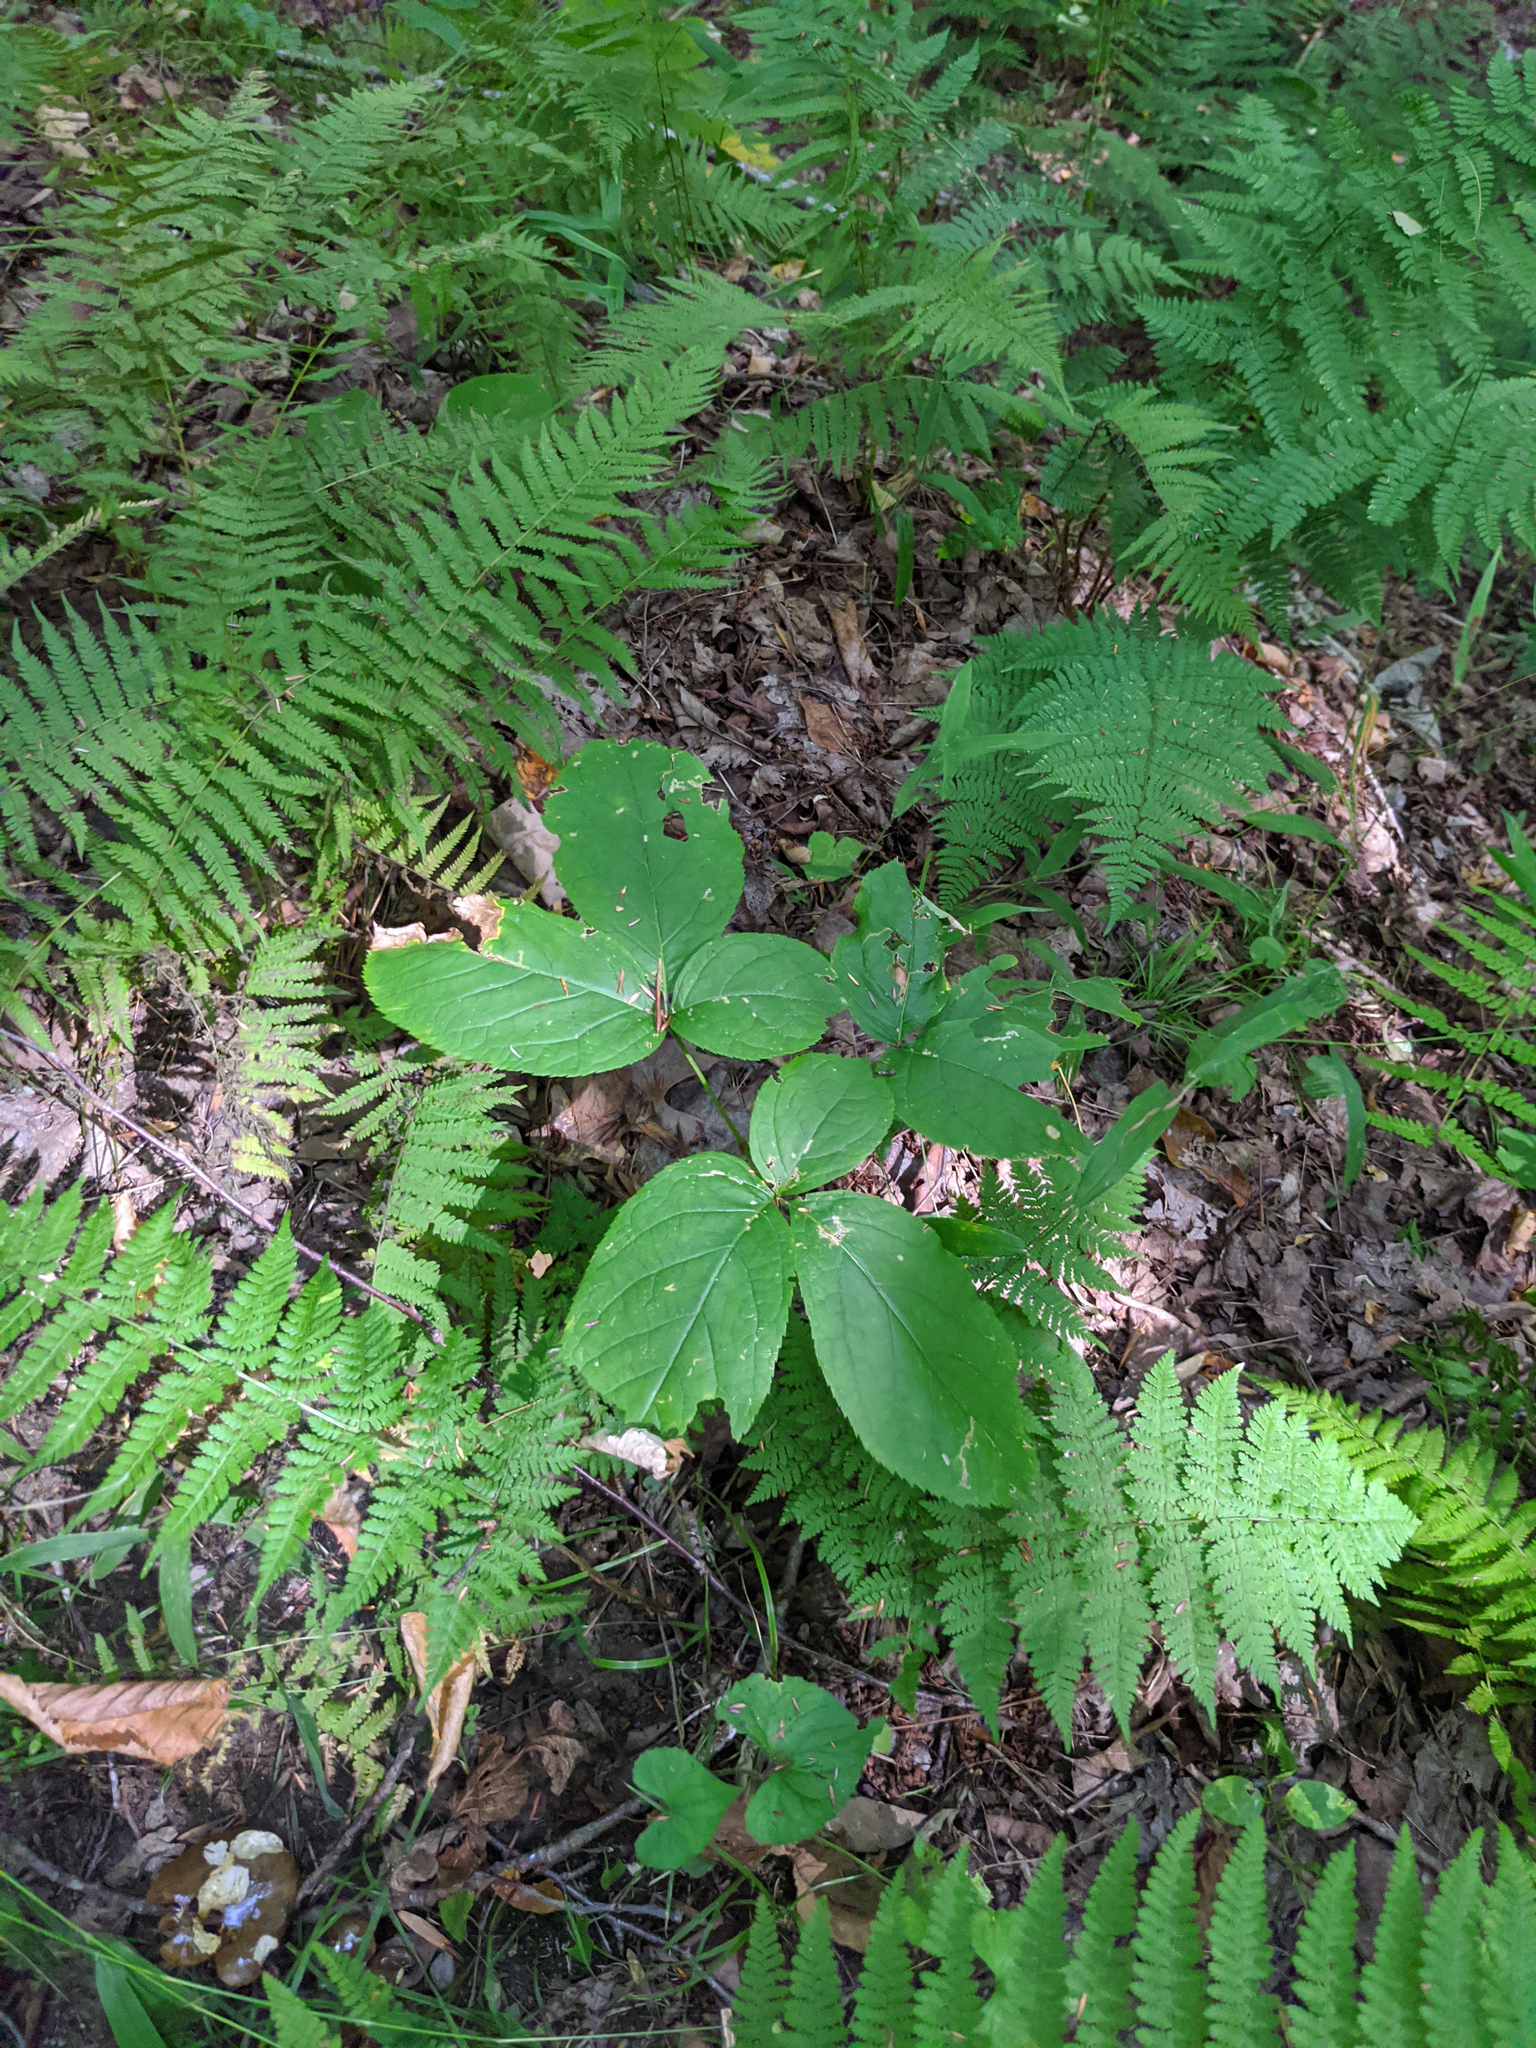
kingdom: Plantae
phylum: Tracheophyta
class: Magnoliopsida
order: Apiales
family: Araliaceae
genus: Aralia
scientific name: Aralia nudicaulis
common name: Wild sarsaparilla
